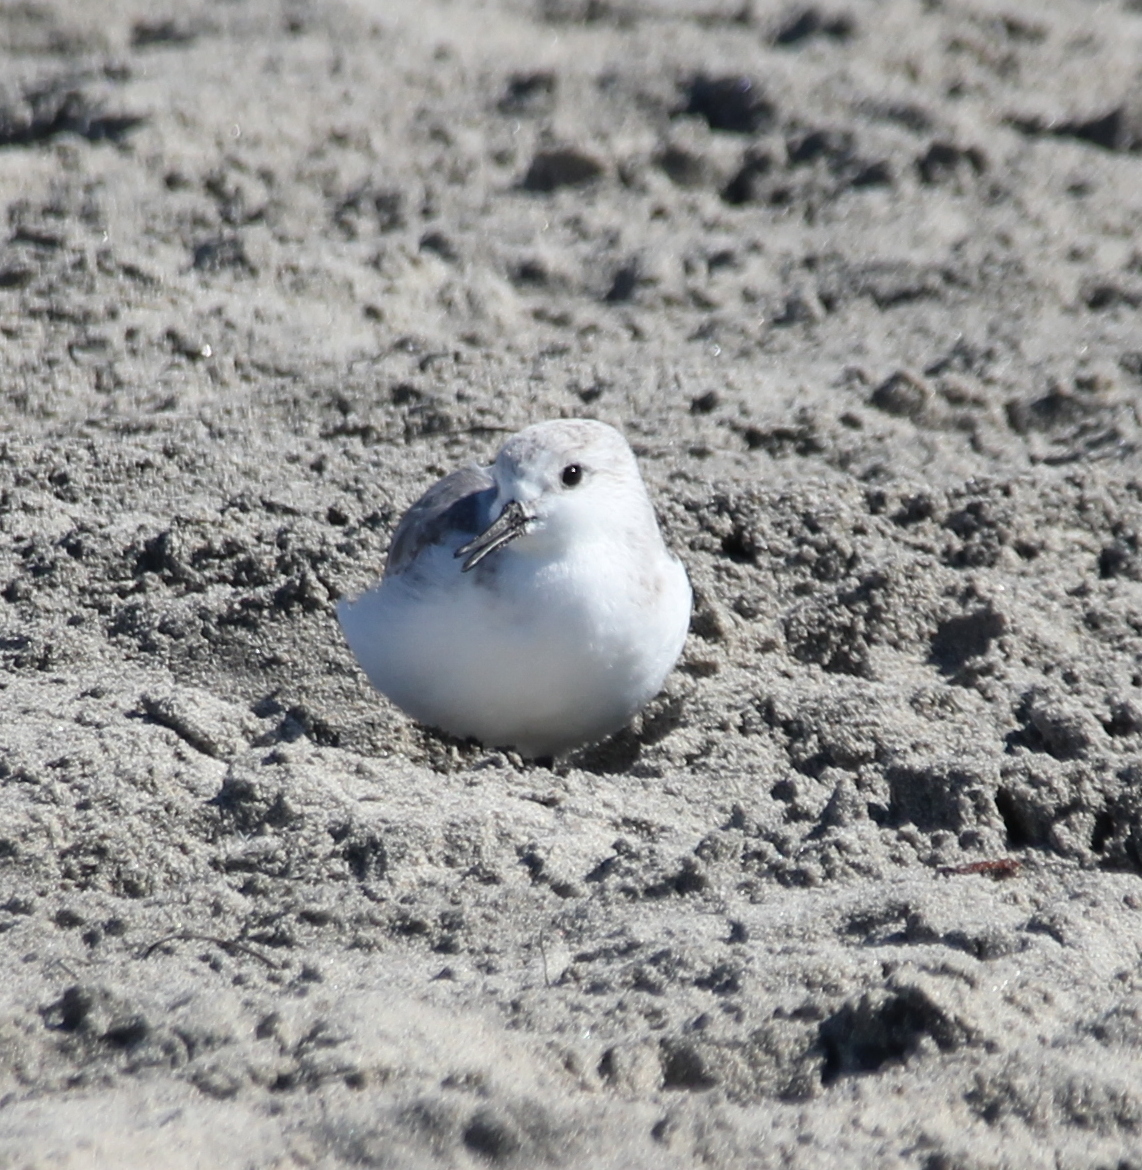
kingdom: Animalia
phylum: Chordata
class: Aves
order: Charadriiformes
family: Scolopacidae
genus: Calidris
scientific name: Calidris alba
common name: Sanderling
